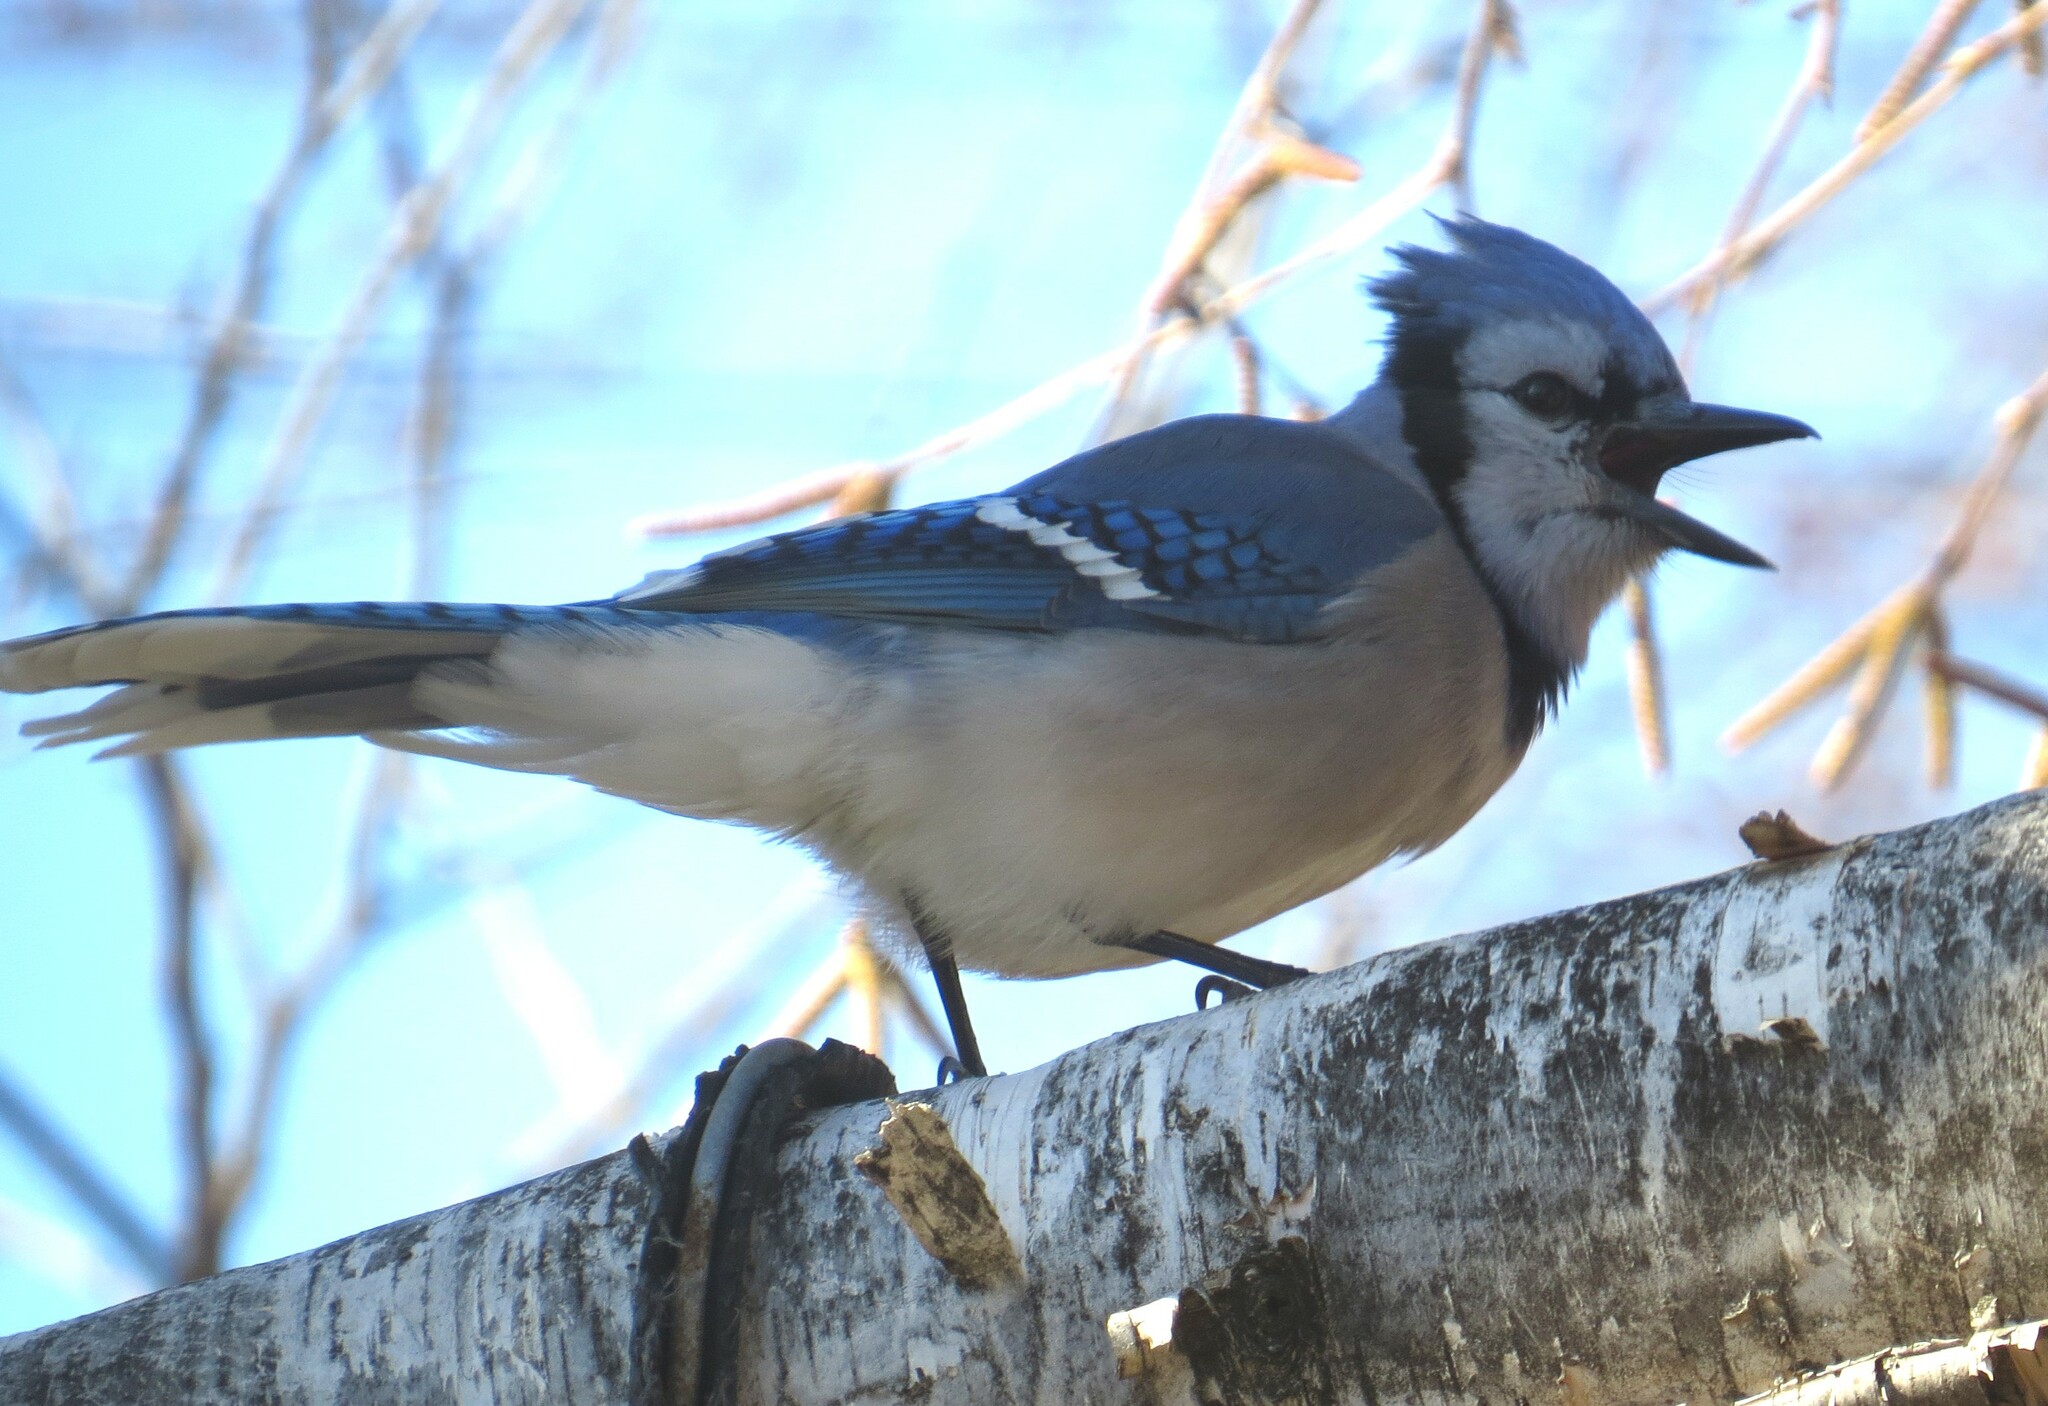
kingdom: Animalia
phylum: Chordata
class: Aves
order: Passeriformes
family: Corvidae
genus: Cyanocitta
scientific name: Cyanocitta cristata
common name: Blue jay
